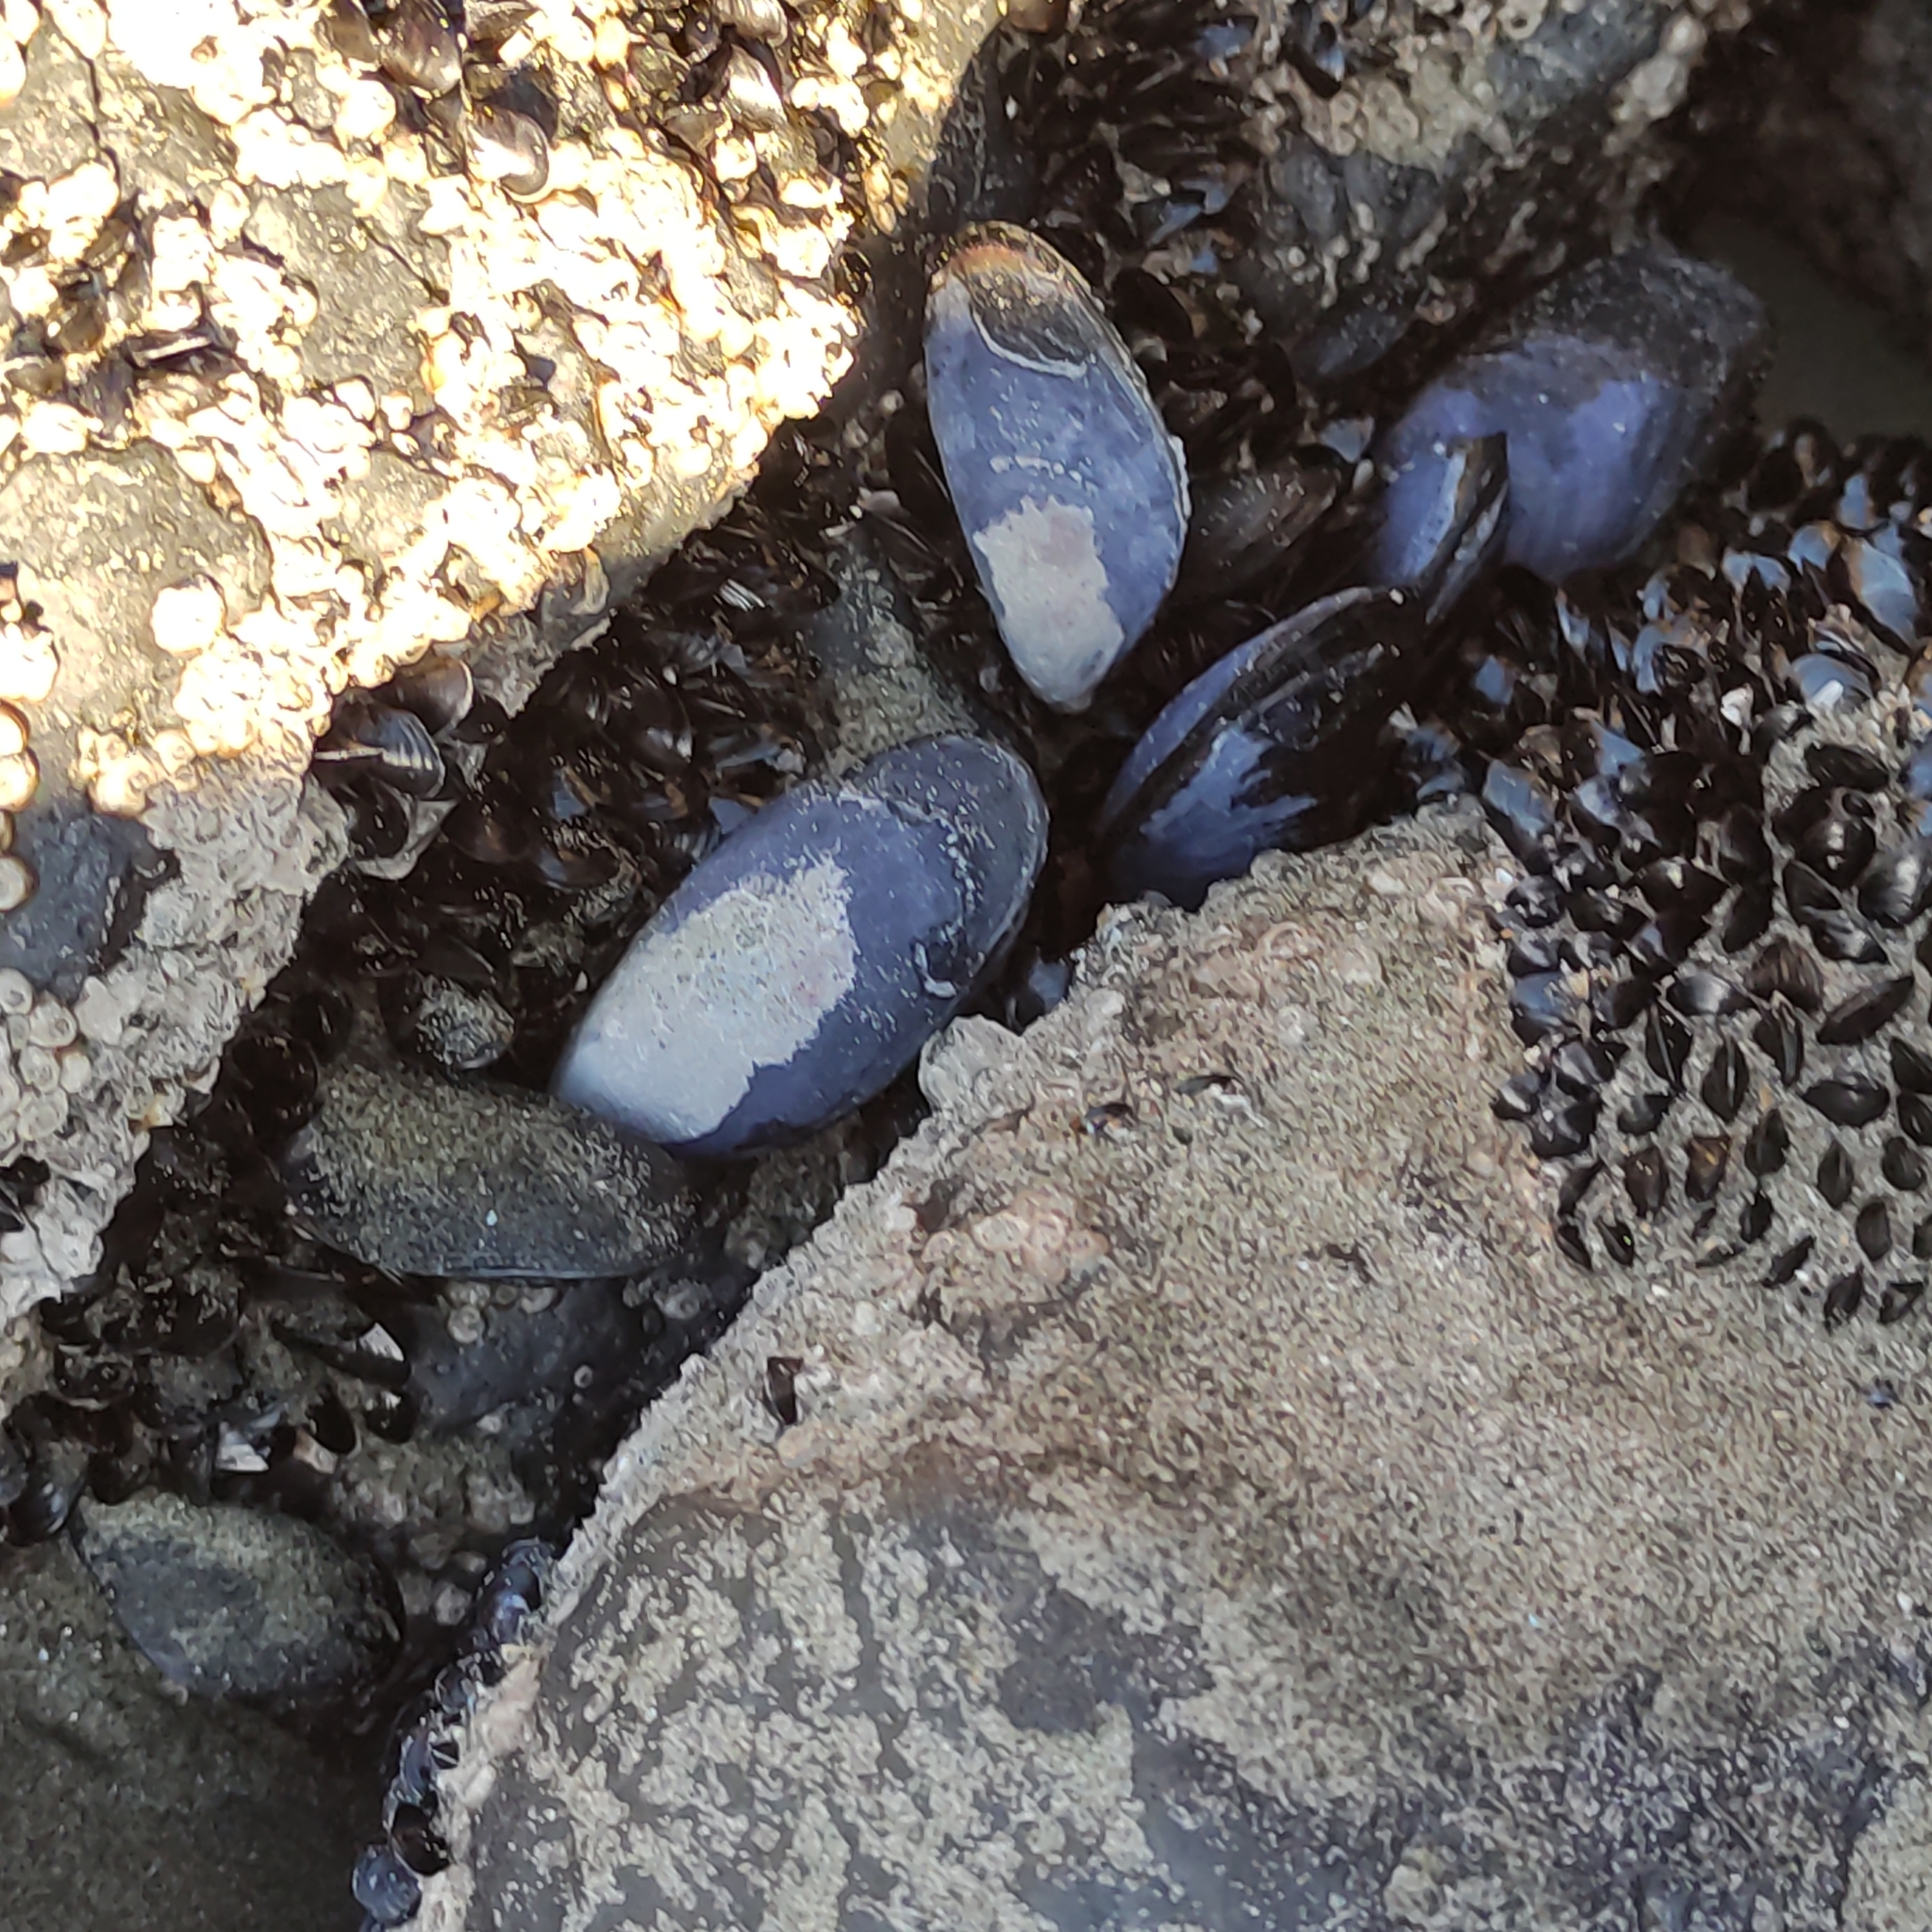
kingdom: Animalia
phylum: Mollusca
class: Bivalvia
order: Mytilida
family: Mytilidae
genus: Mytilus
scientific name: Mytilus planulatus
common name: Australian mussel
